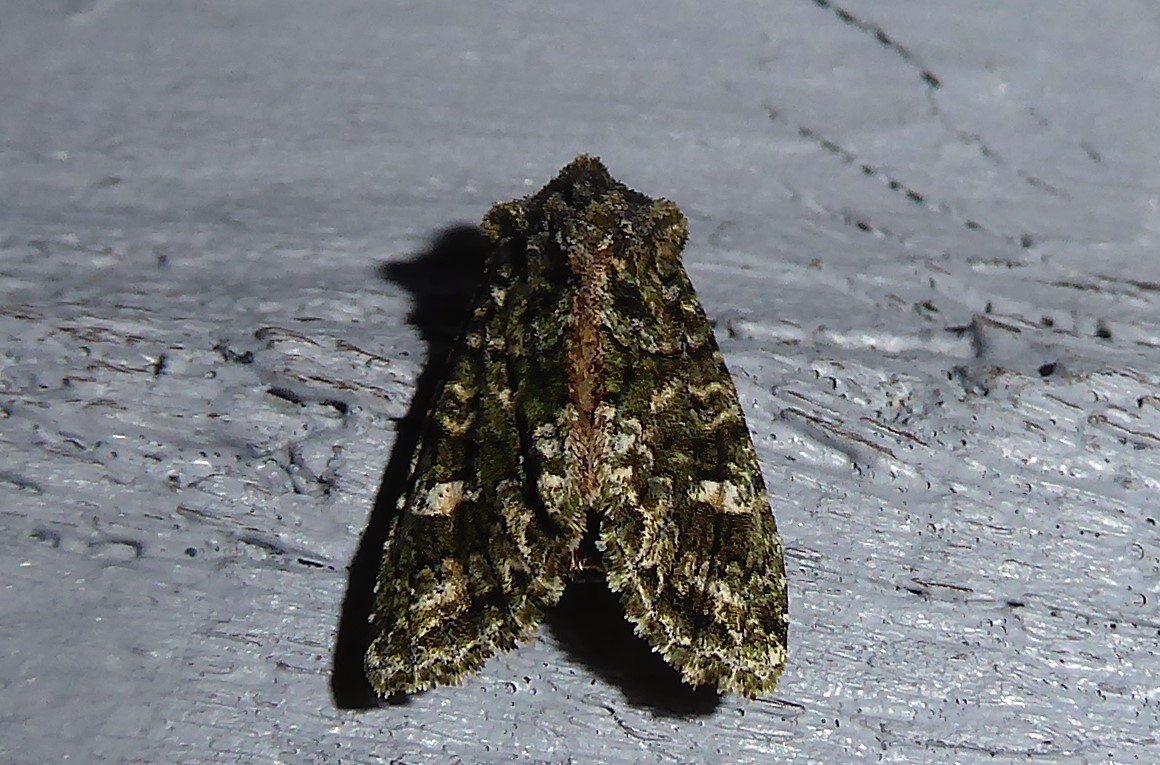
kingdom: Animalia
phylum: Arthropoda
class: Insecta
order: Lepidoptera
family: Noctuidae
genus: Ichneutica
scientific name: Ichneutica
